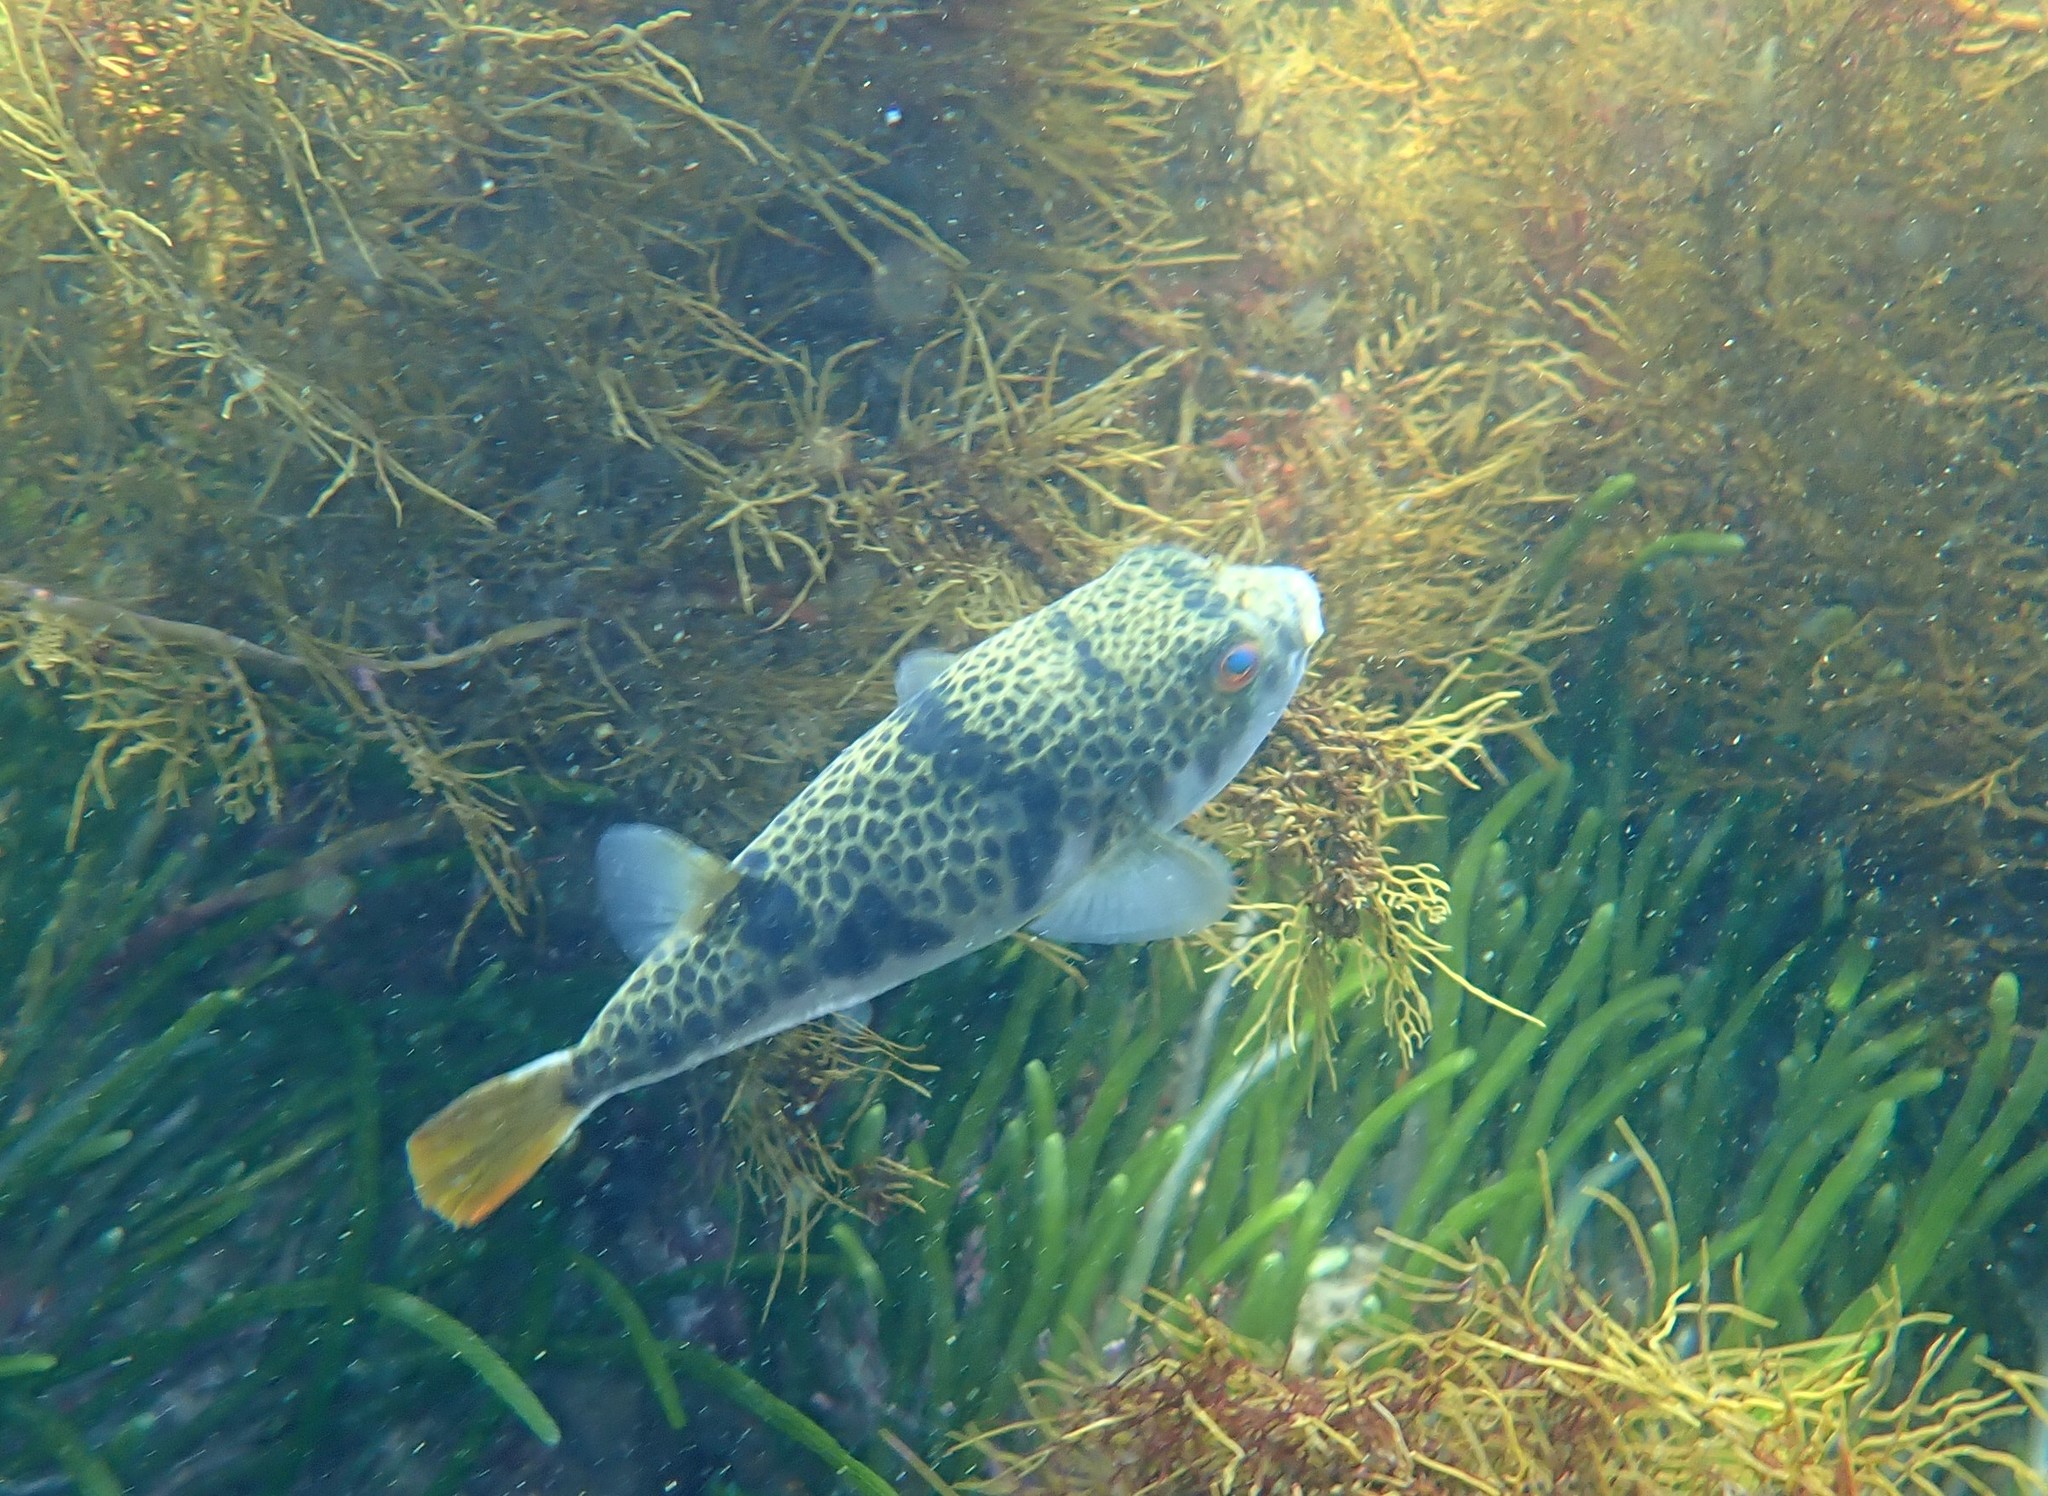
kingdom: Animalia
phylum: Chordata
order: Tetraodontiformes
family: Tetraodontidae
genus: Tetractenos
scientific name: Tetractenos glaber
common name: Smooth toadfish
